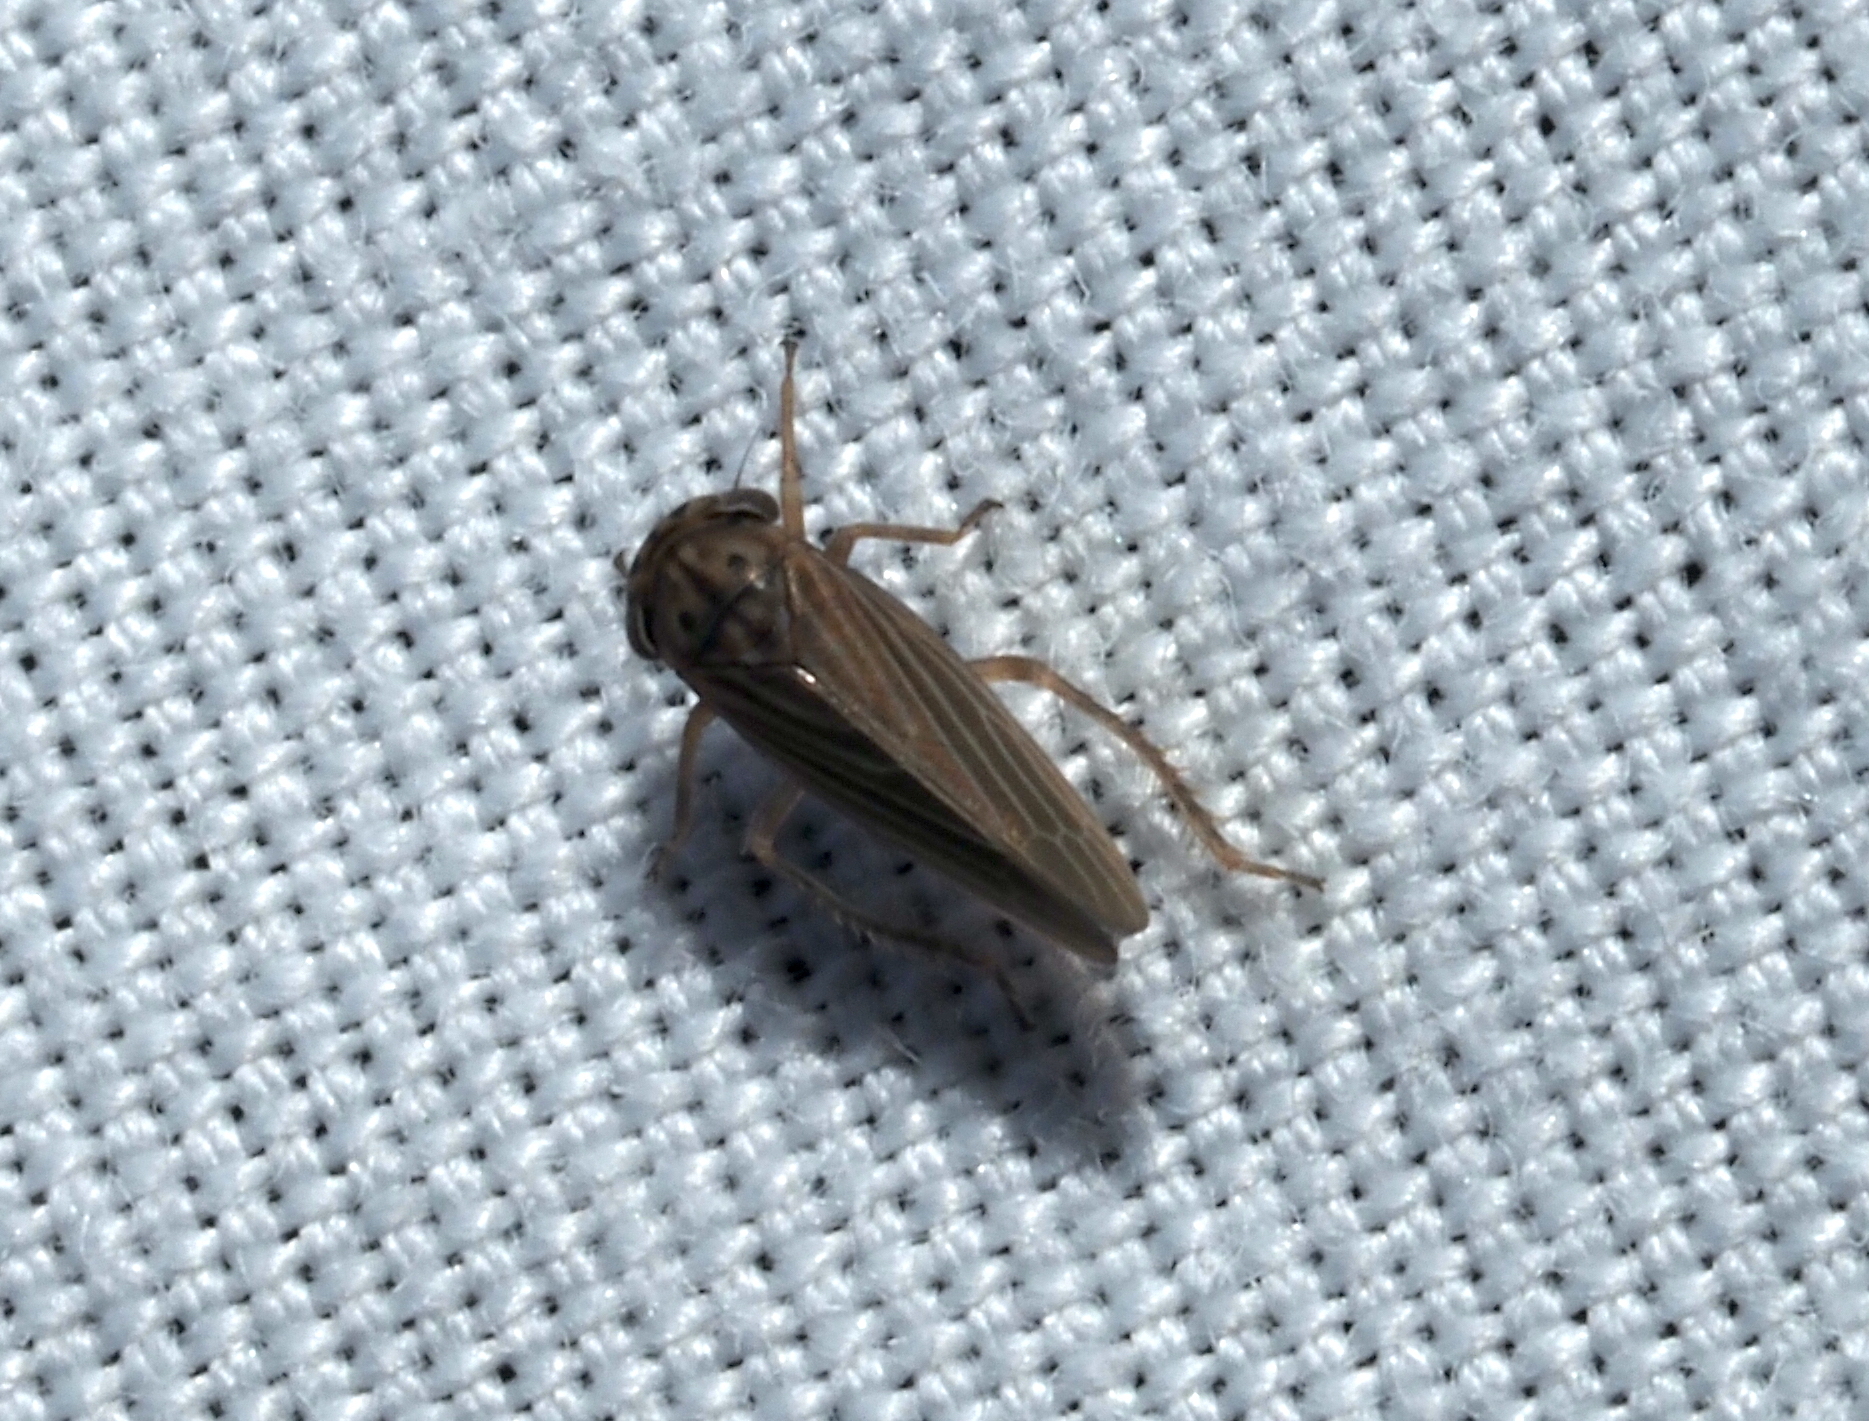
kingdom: Animalia
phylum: Arthropoda
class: Insecta
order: Hemiptera
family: Cicadellidae
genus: Agallia
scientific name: Agallia constricta
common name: The constricted leafhopper
